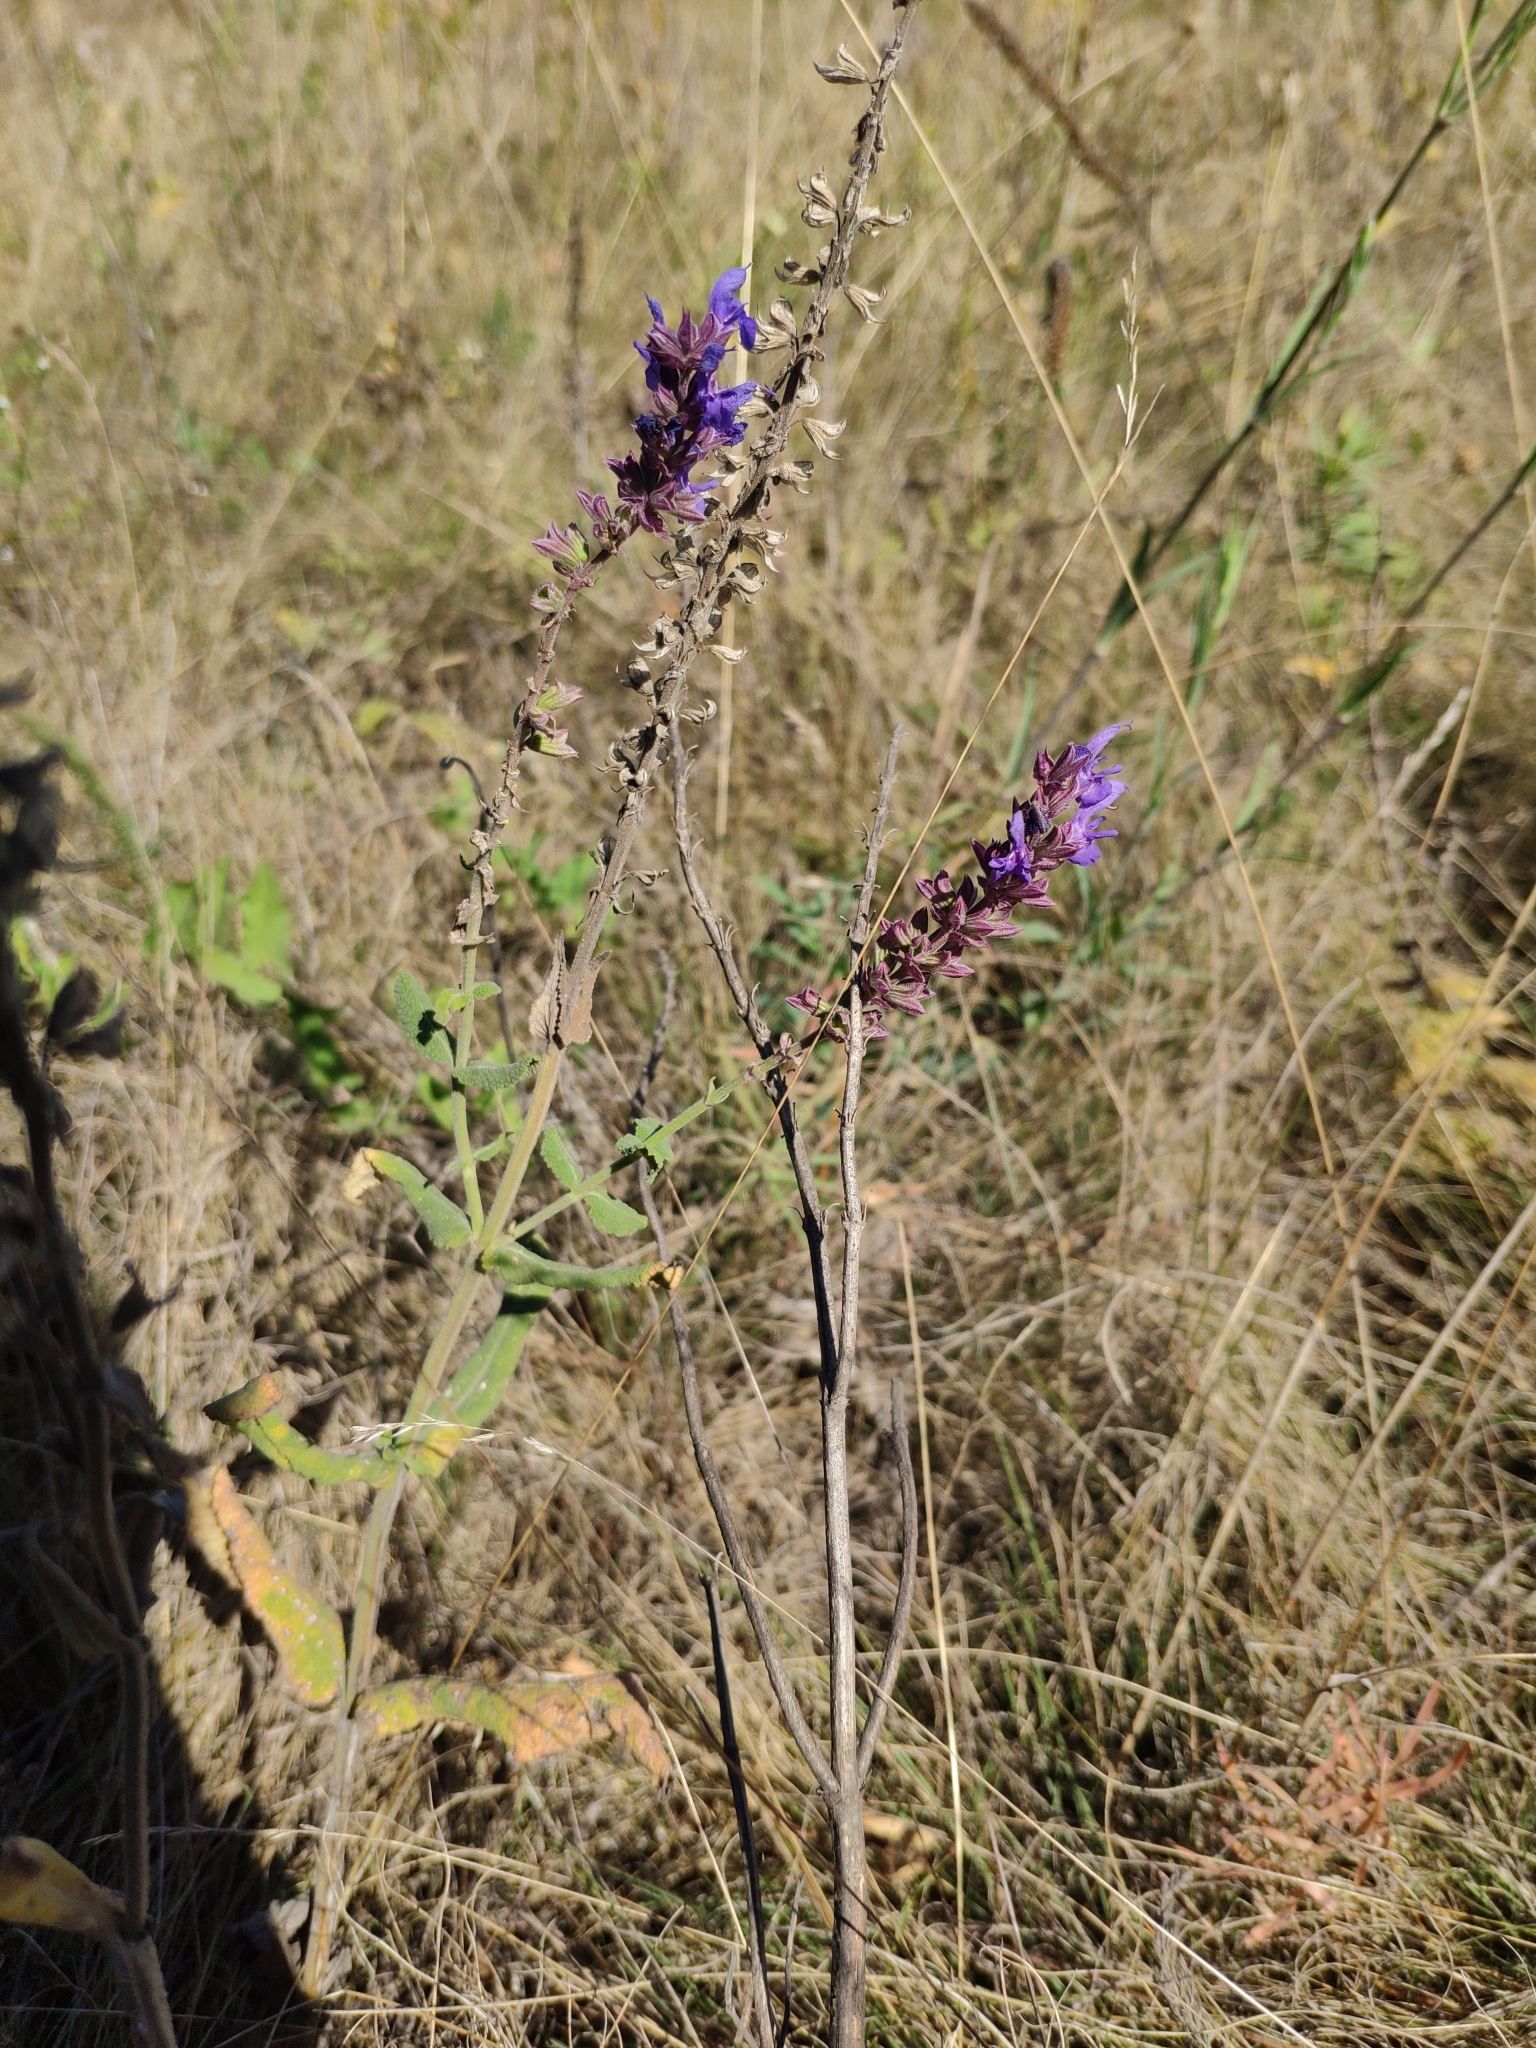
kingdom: Plantae
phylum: Tracheophyta
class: Magnoliopsida
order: Lamiales
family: Lamiaceae
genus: Salvia
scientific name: Salvia nemorosa
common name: Balkan clary
